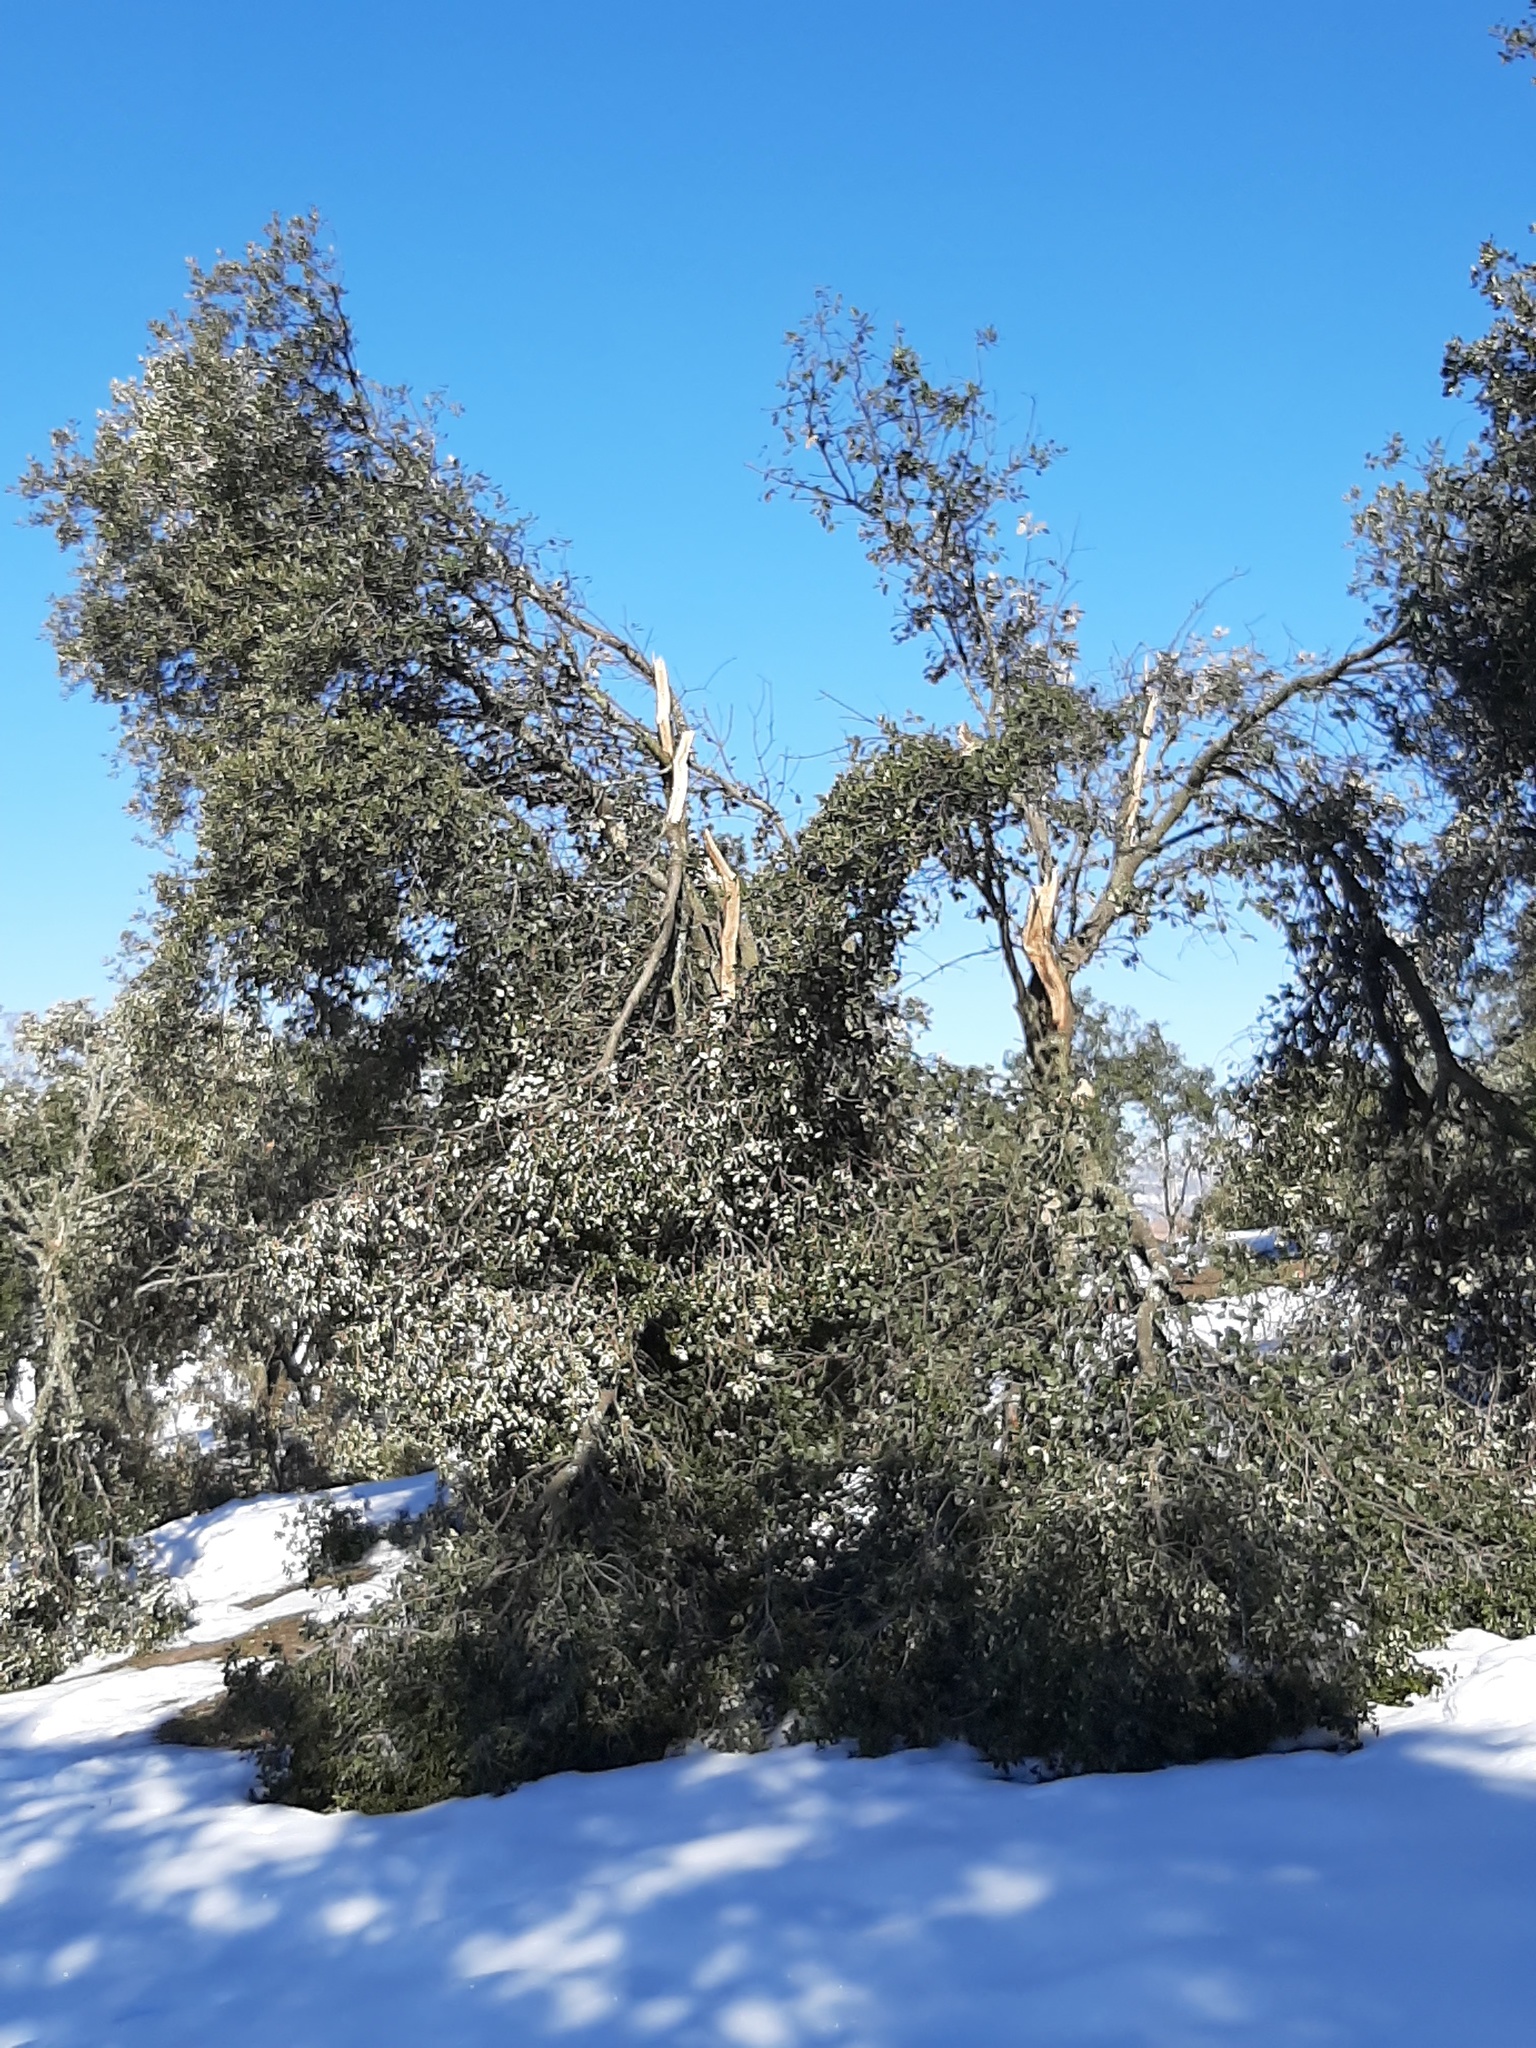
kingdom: Plantae
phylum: Tracheophyta
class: Magnoliopsida
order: Fagales
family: Fagaceae
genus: Quercus
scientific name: Quercus rotundifolia
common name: Holm oak
